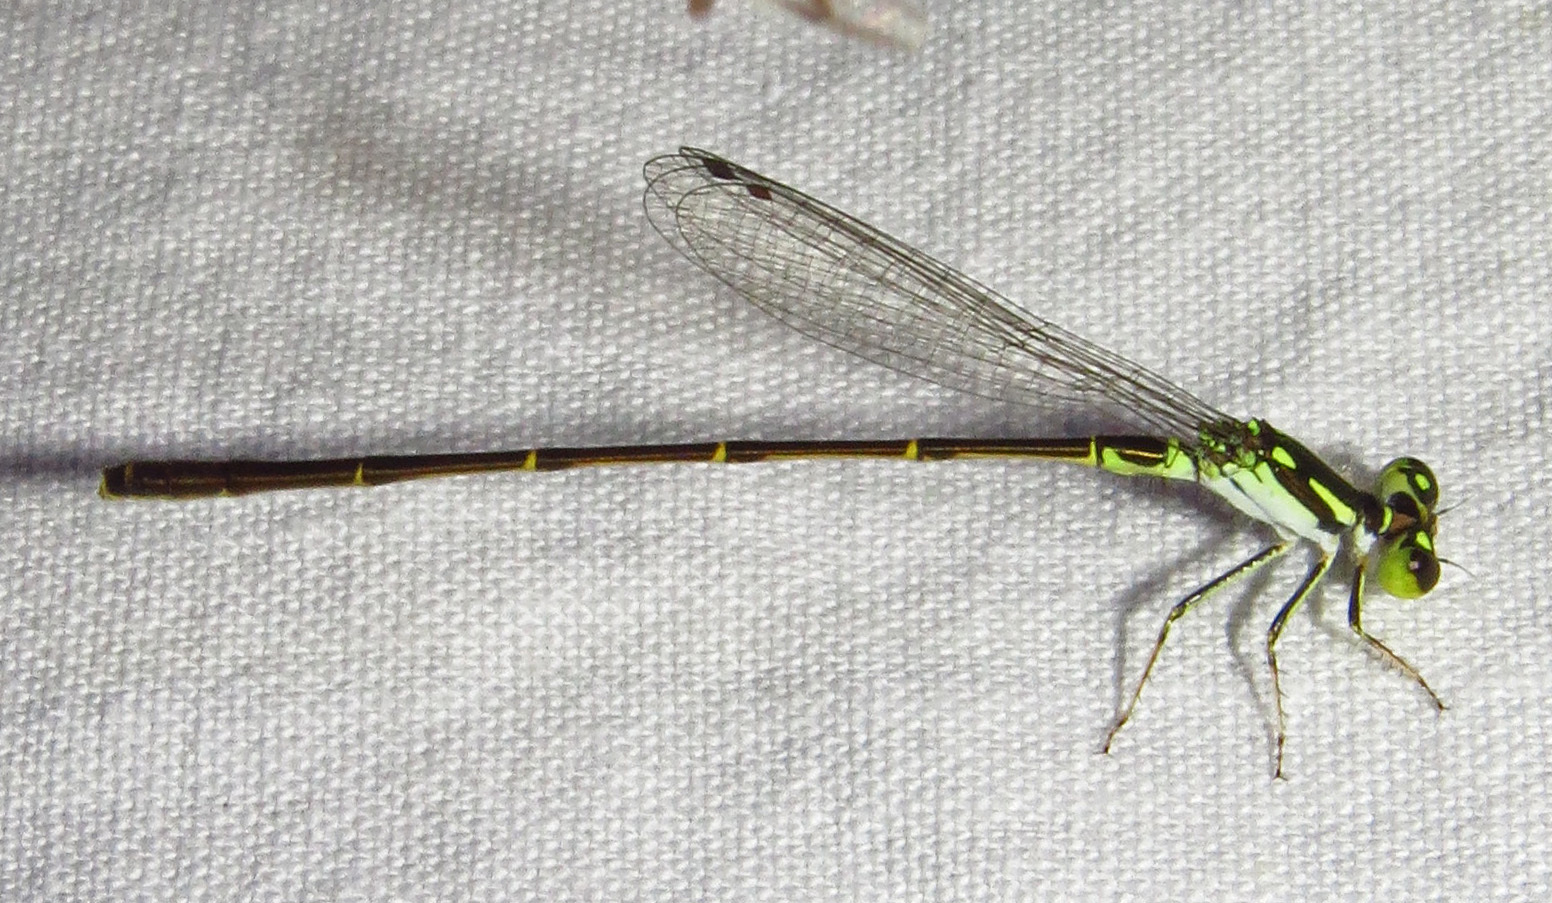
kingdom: Animalia
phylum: Arthropoda
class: Insecta
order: Odonata
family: Coenagrionidae
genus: Ischnura
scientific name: Ischnura posita
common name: Fragile forktail
